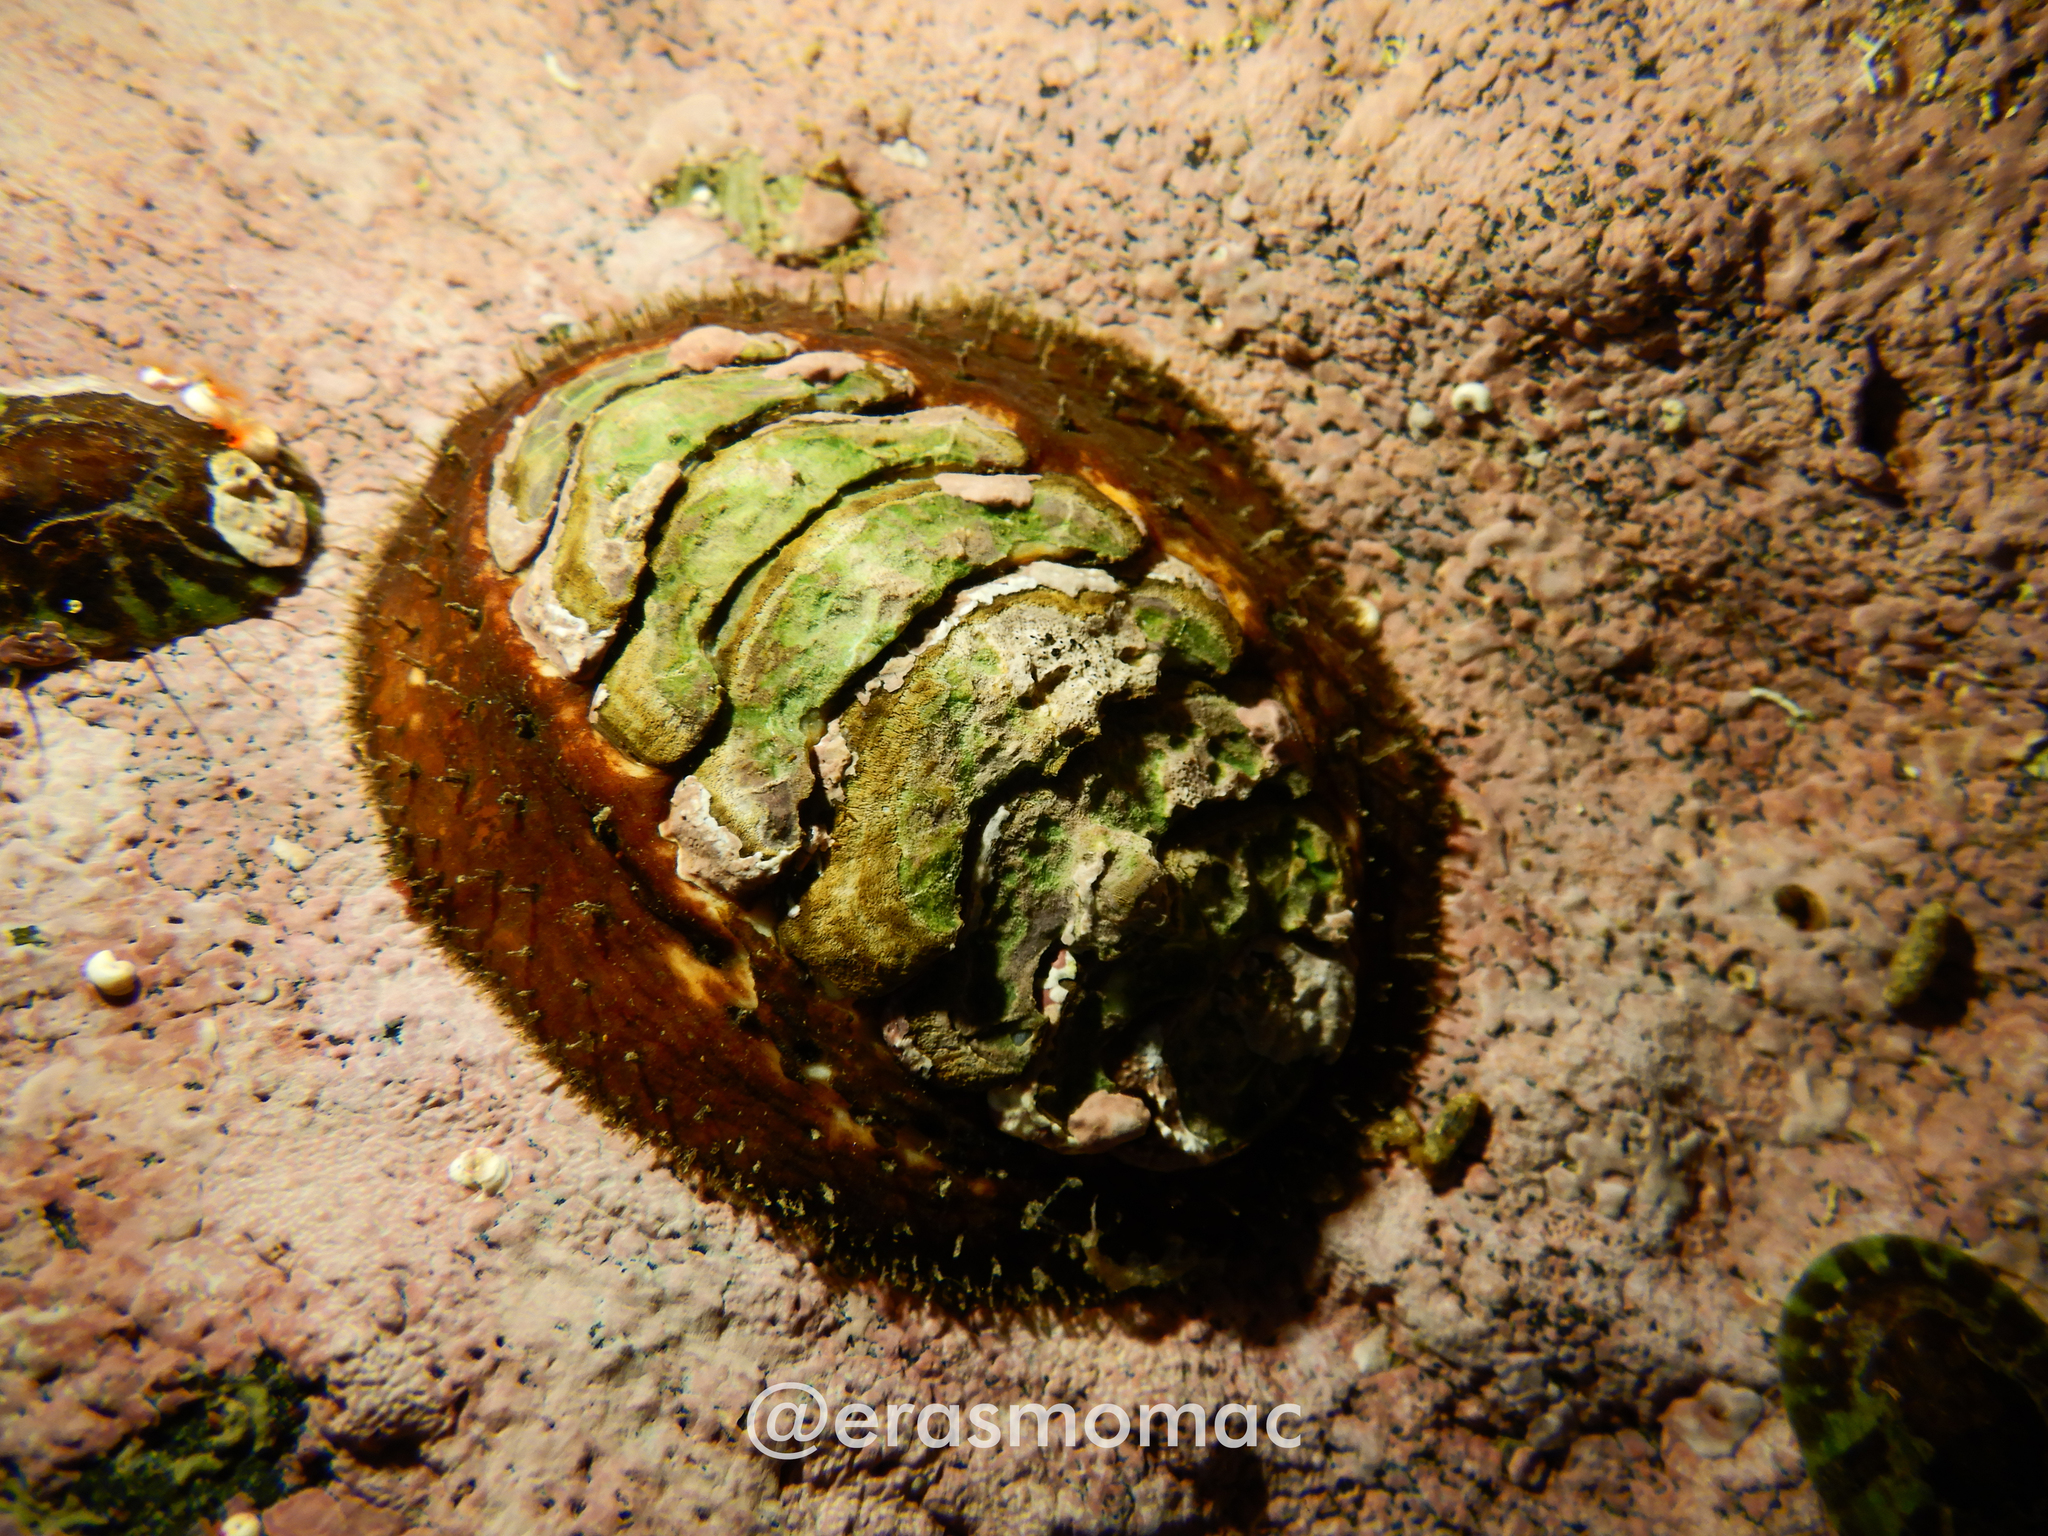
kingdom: Animalia
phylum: Mollusca
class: Polyplacophora
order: Chitonida
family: Mopaliidae
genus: Plaxiphora
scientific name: Plaxiphora aurata
